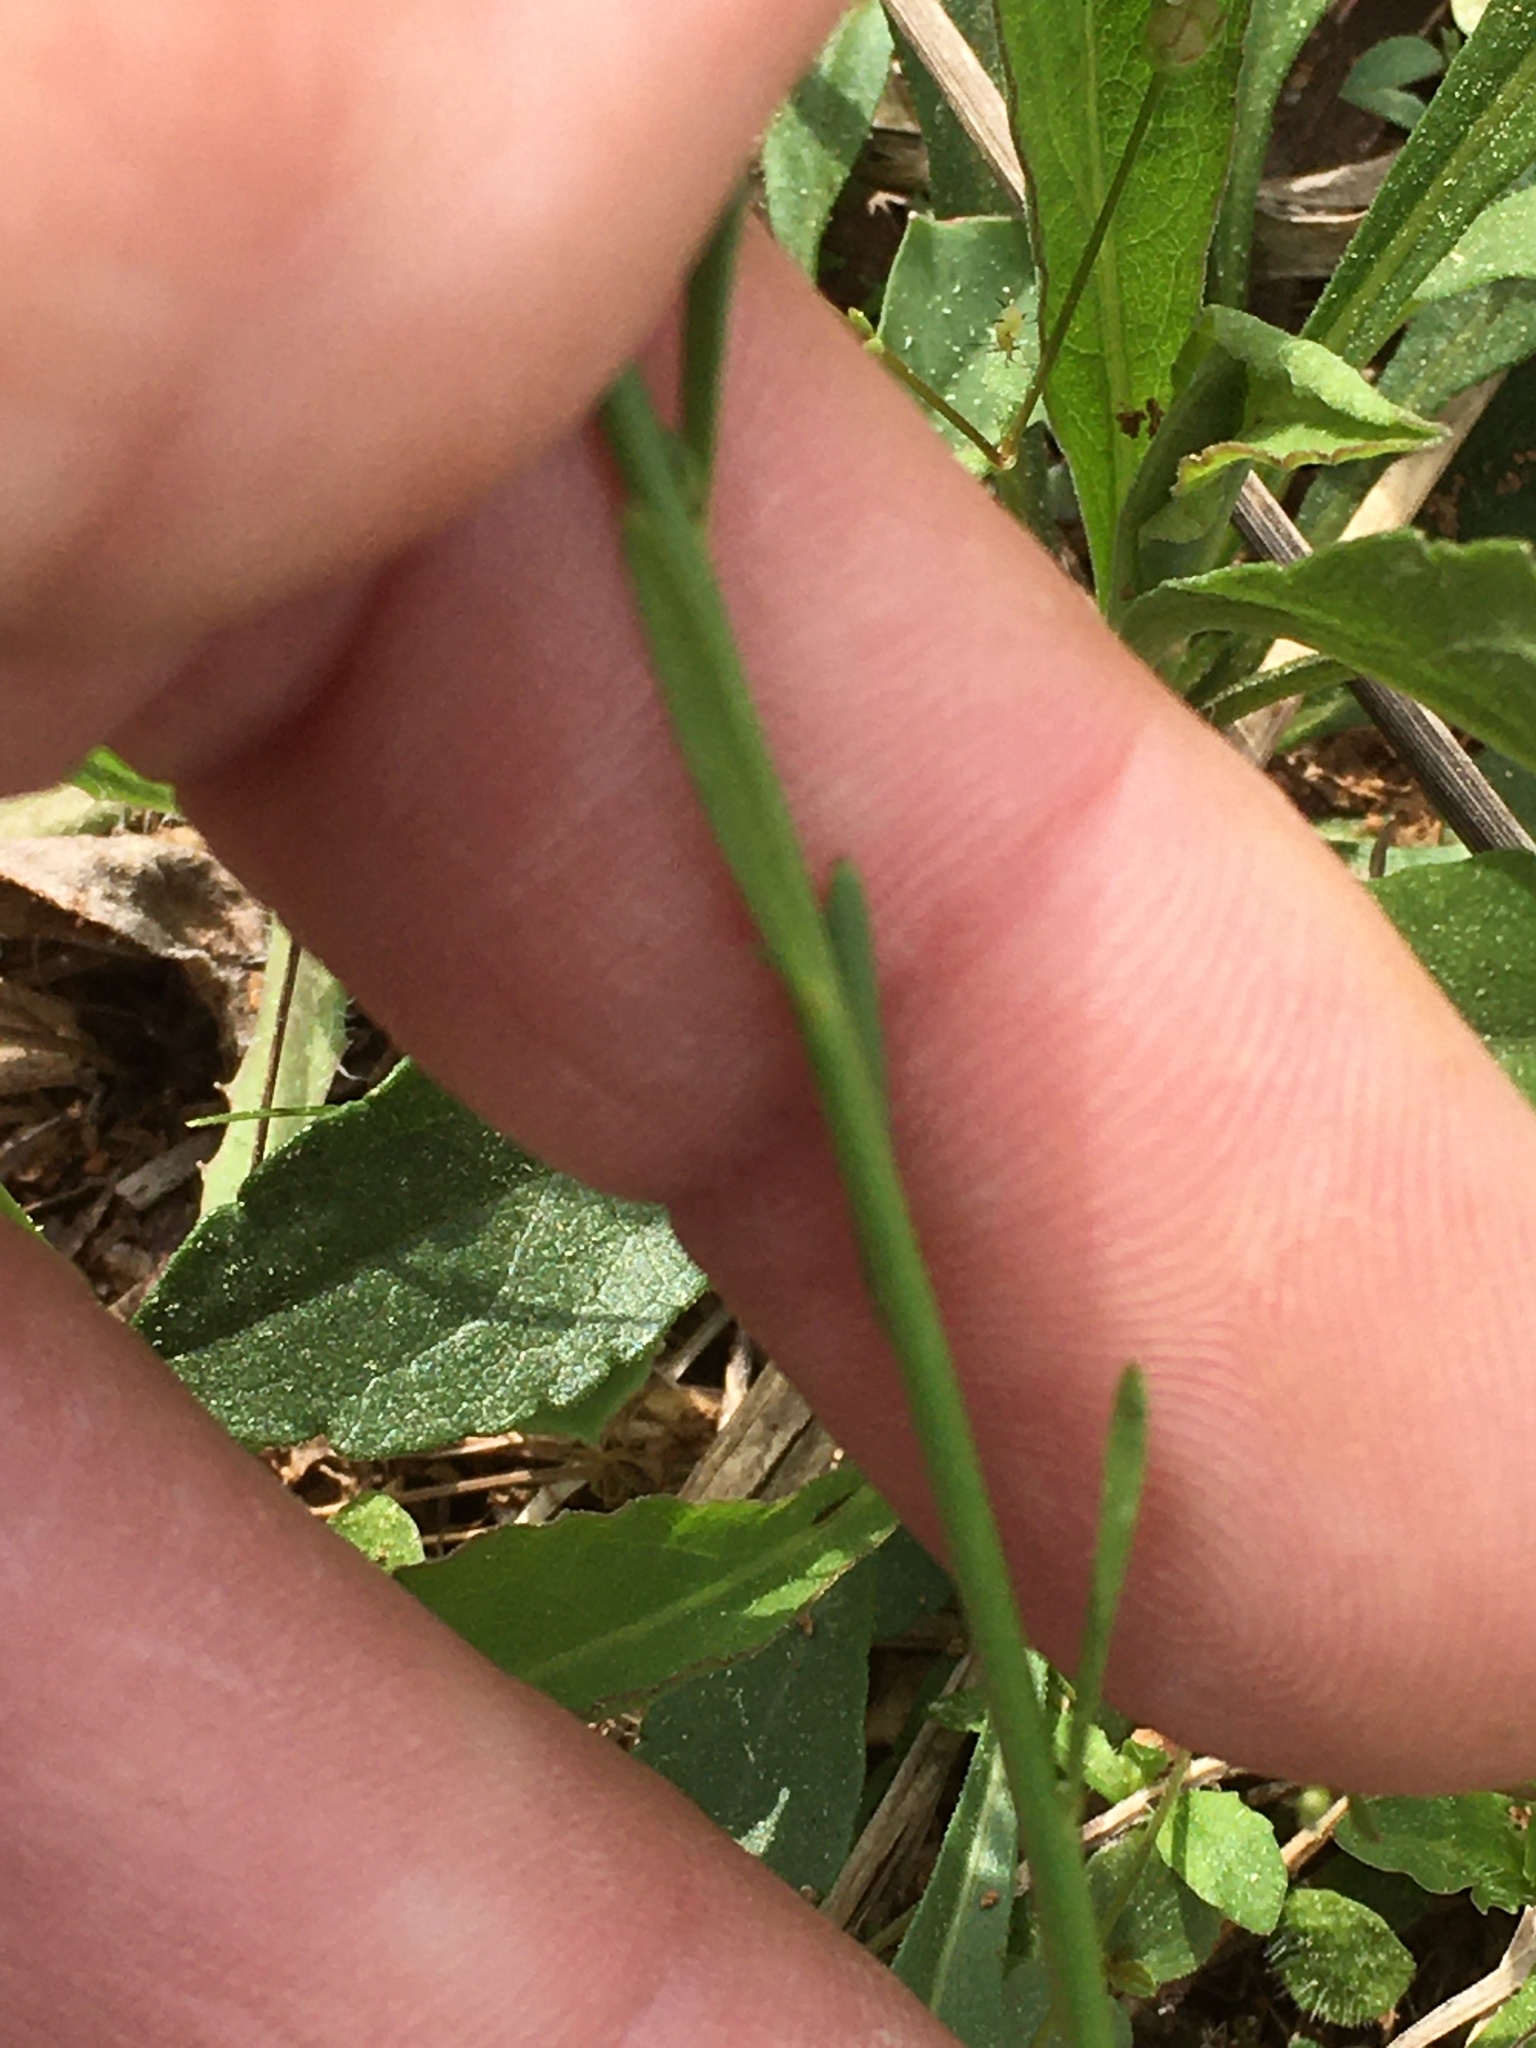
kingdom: Plantae
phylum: Tracheophyta
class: Magnoliopsida
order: Lamiales
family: Plantaginaceae
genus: Nuttallanthus
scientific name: Nuttallanthus canadensis
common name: Blue toadflax
